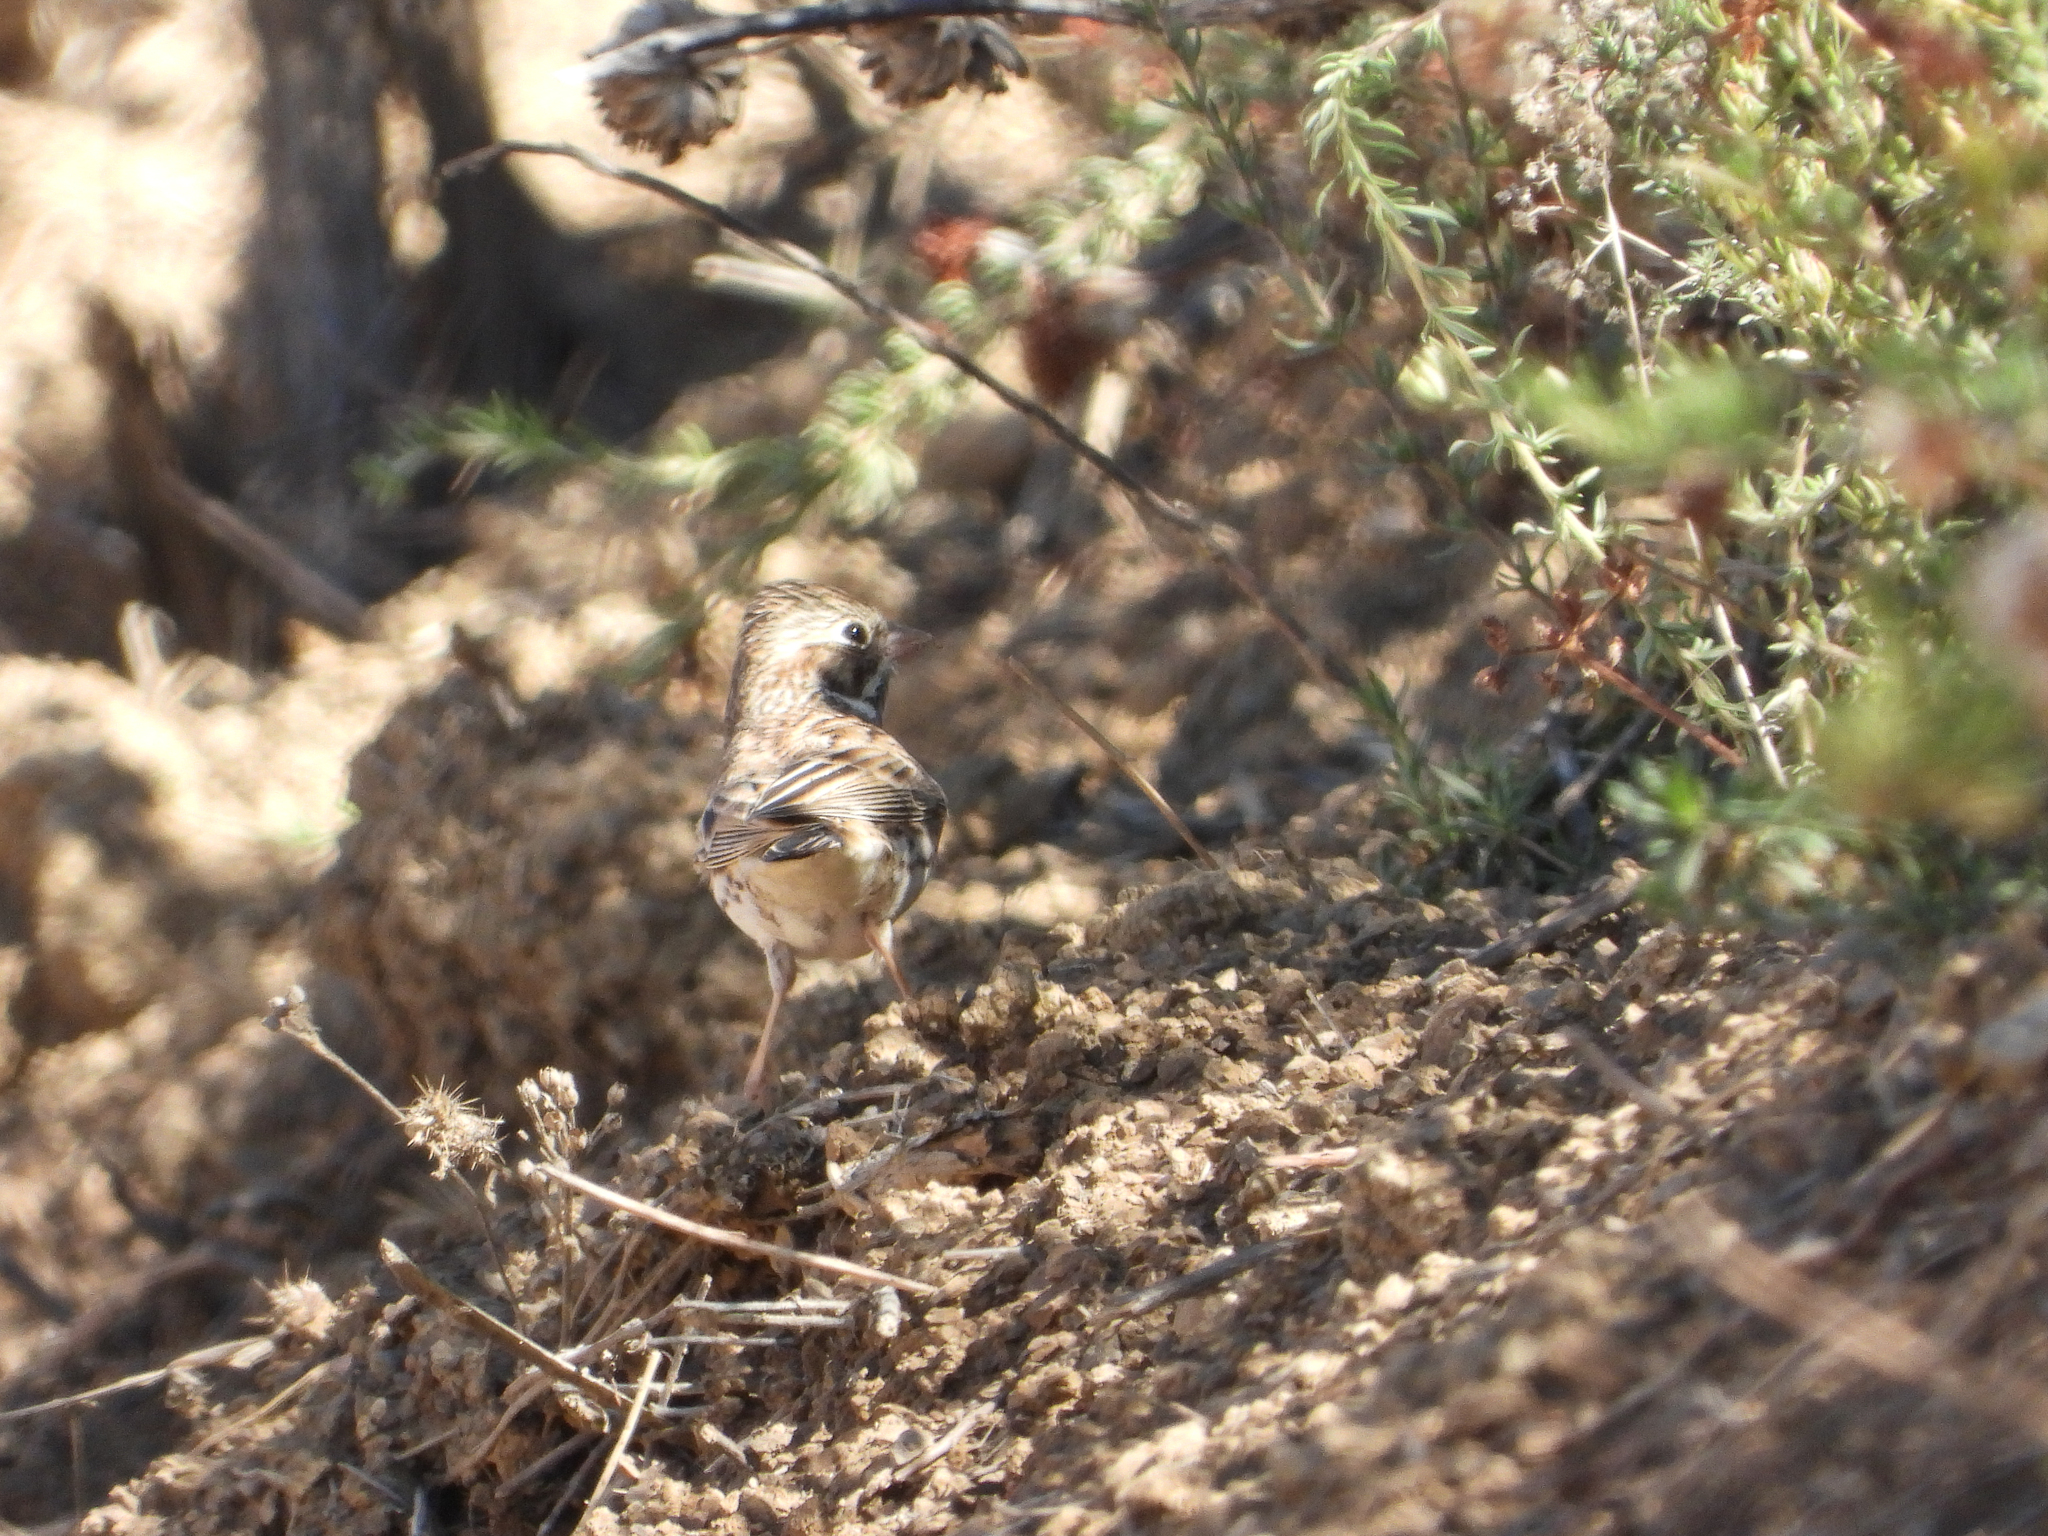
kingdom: Animalia
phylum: Chordata
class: Aves
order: Passeriformes
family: Passerellidae
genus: Pooecetes
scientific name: Pooecetes gramineus
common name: Vesper sparrow
